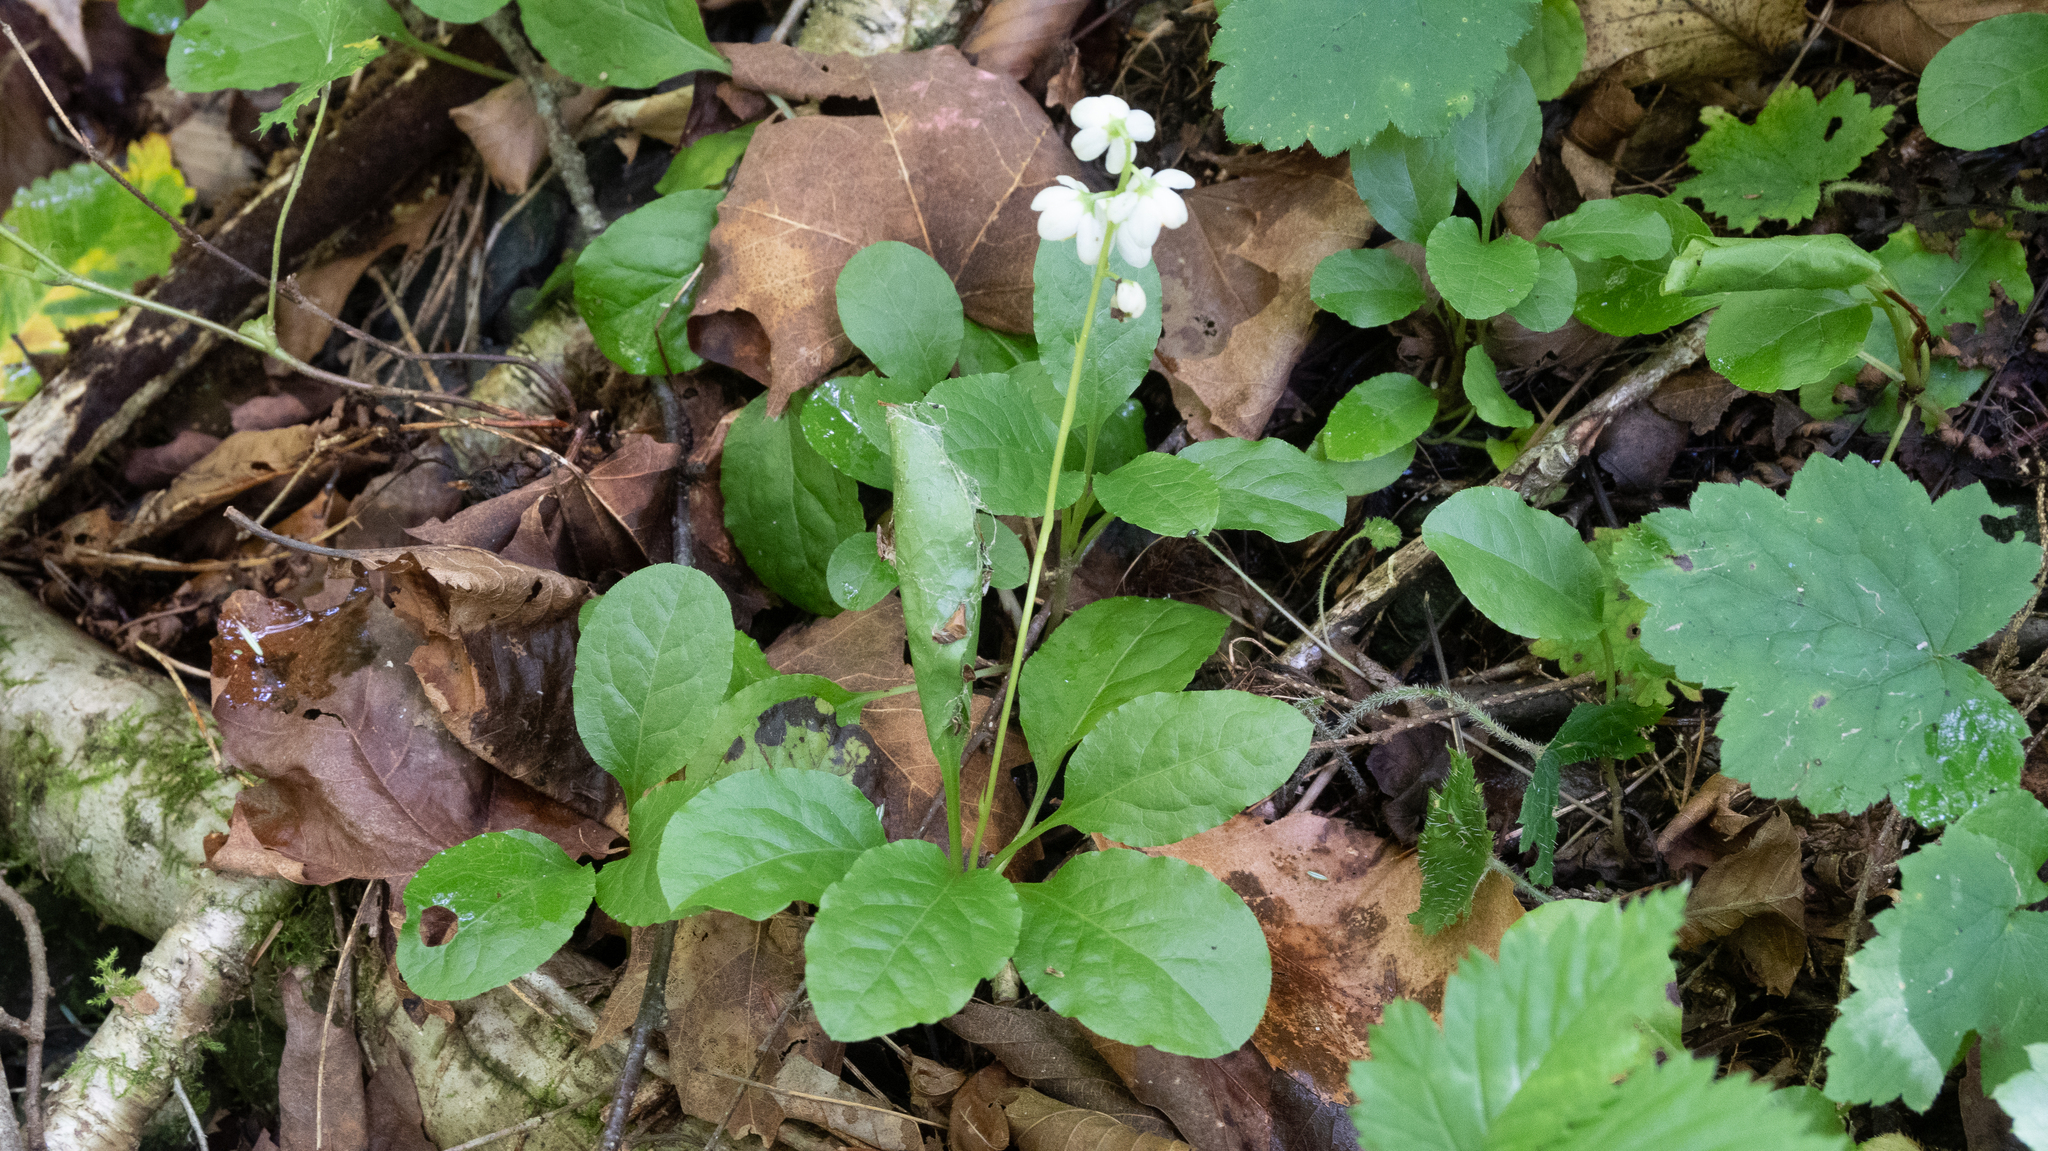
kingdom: Plantae
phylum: Tracheophyta
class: Magnoliopsida
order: Ericales
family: Ericaceae
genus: Pyrola
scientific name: Pyrola elliptica
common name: Shinleaf
